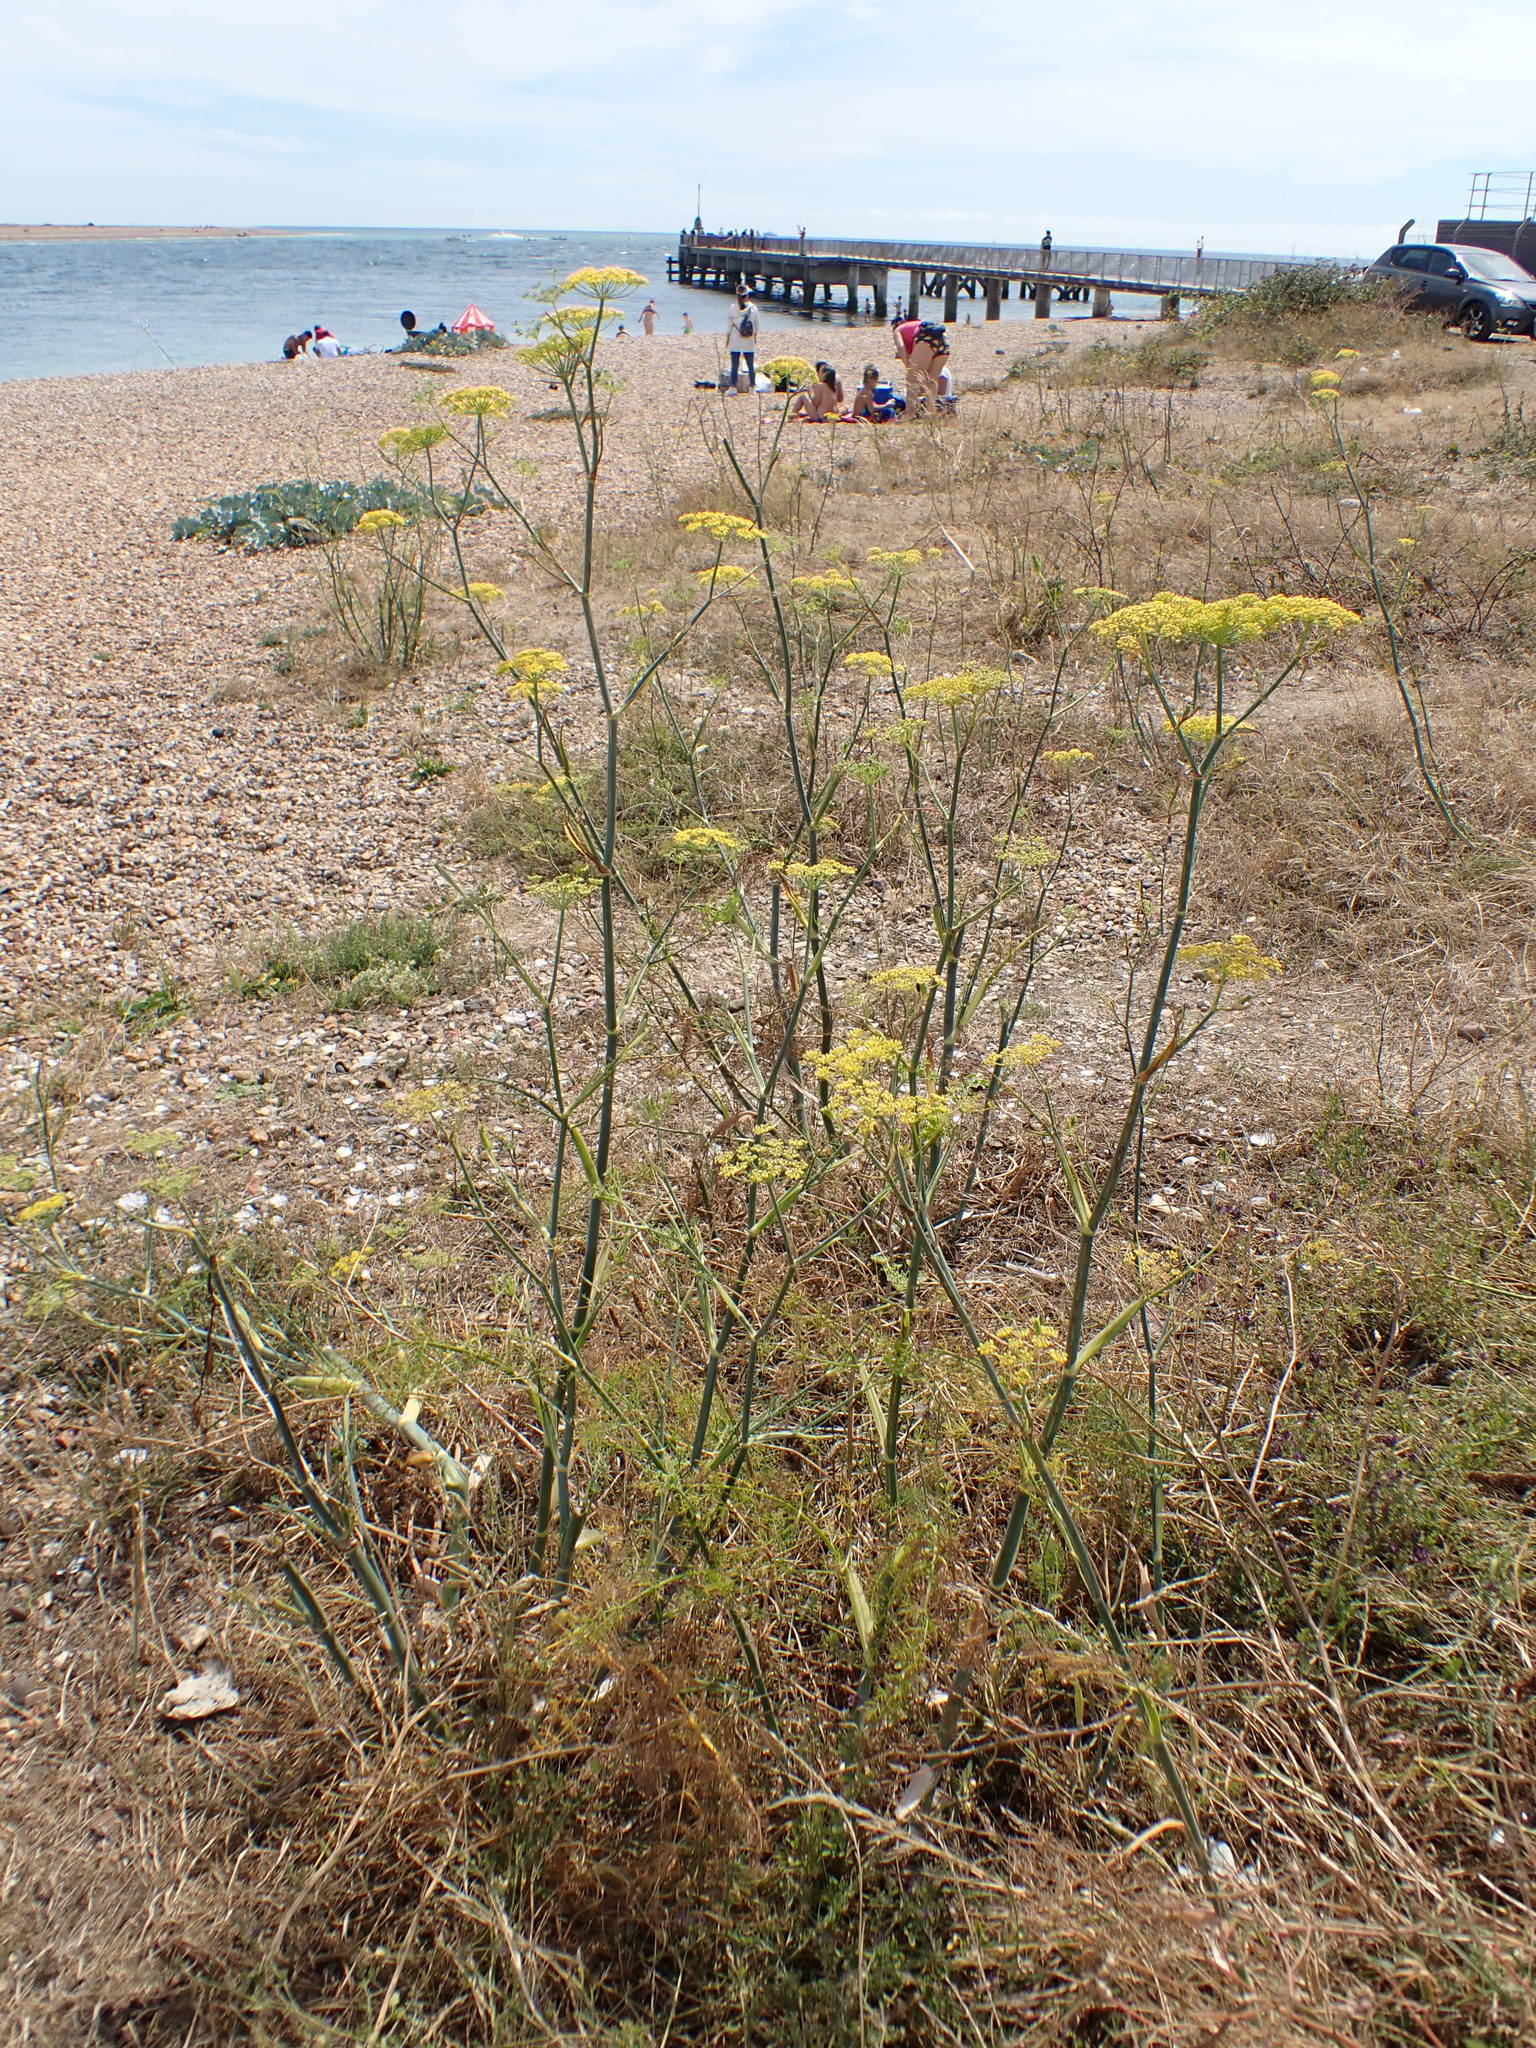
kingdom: Plantae
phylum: Tracheophyta
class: Magnoliopsida
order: Apiales
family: Apiaceae
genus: Foeniculum
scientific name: Foeniculum vulgare
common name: Fennel
